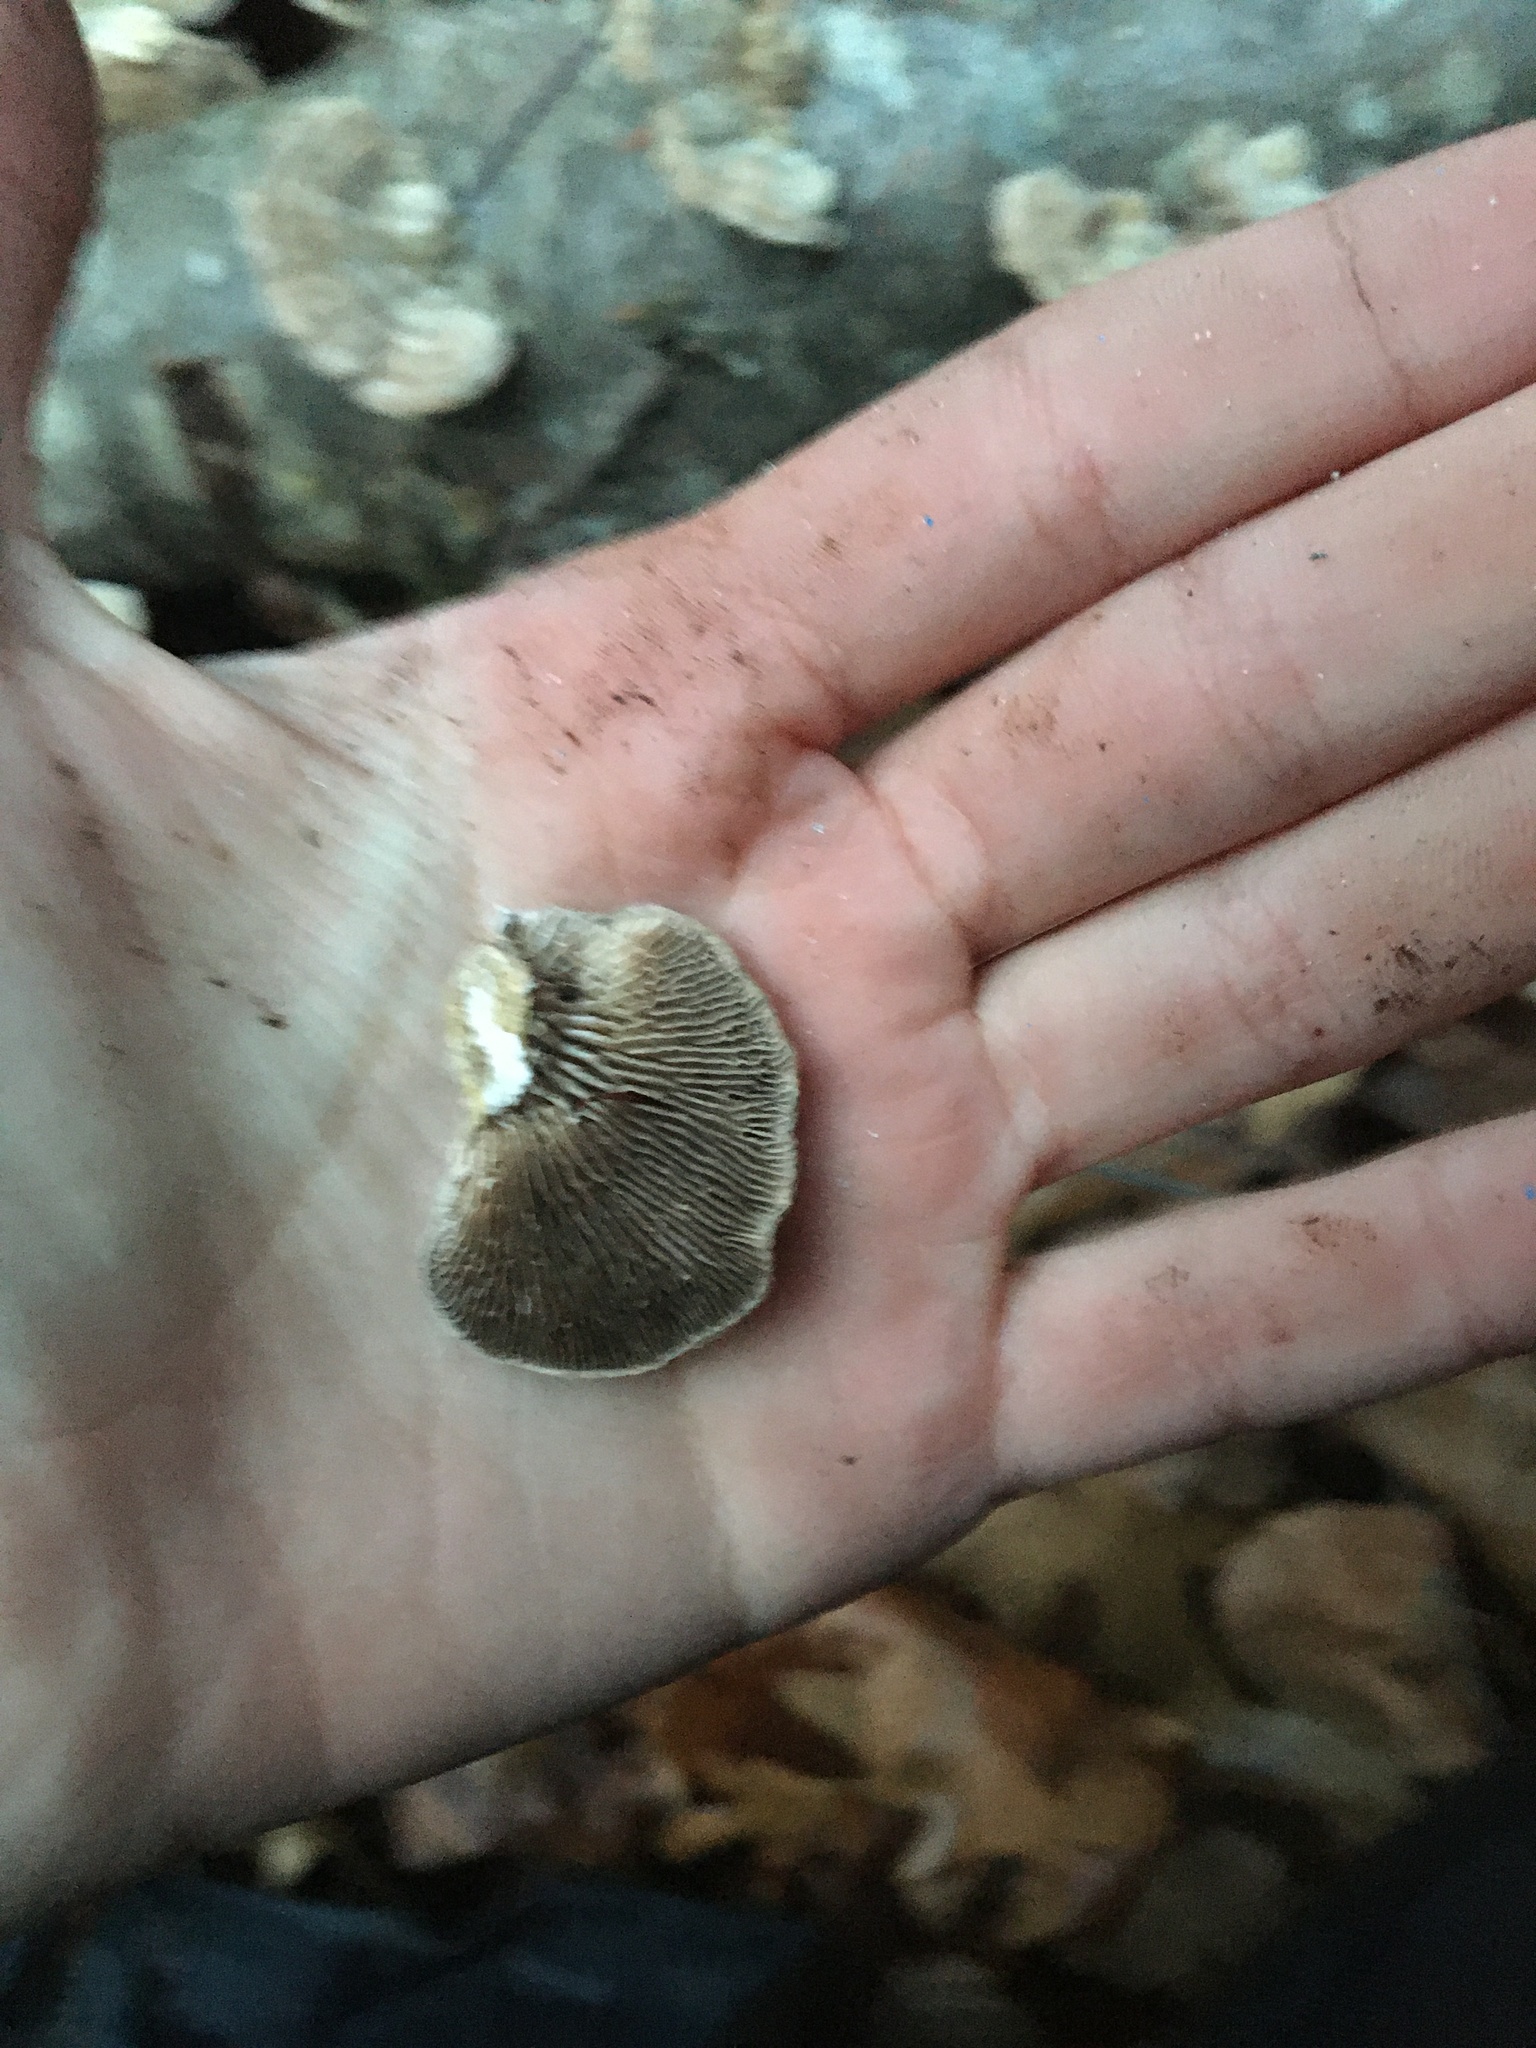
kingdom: Fungi
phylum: Basidiomycota
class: Agaricomycetes
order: Polyporales
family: Polyporaceae
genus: Lenzites
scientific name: Lenzites betulinus
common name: Birch mazegill
